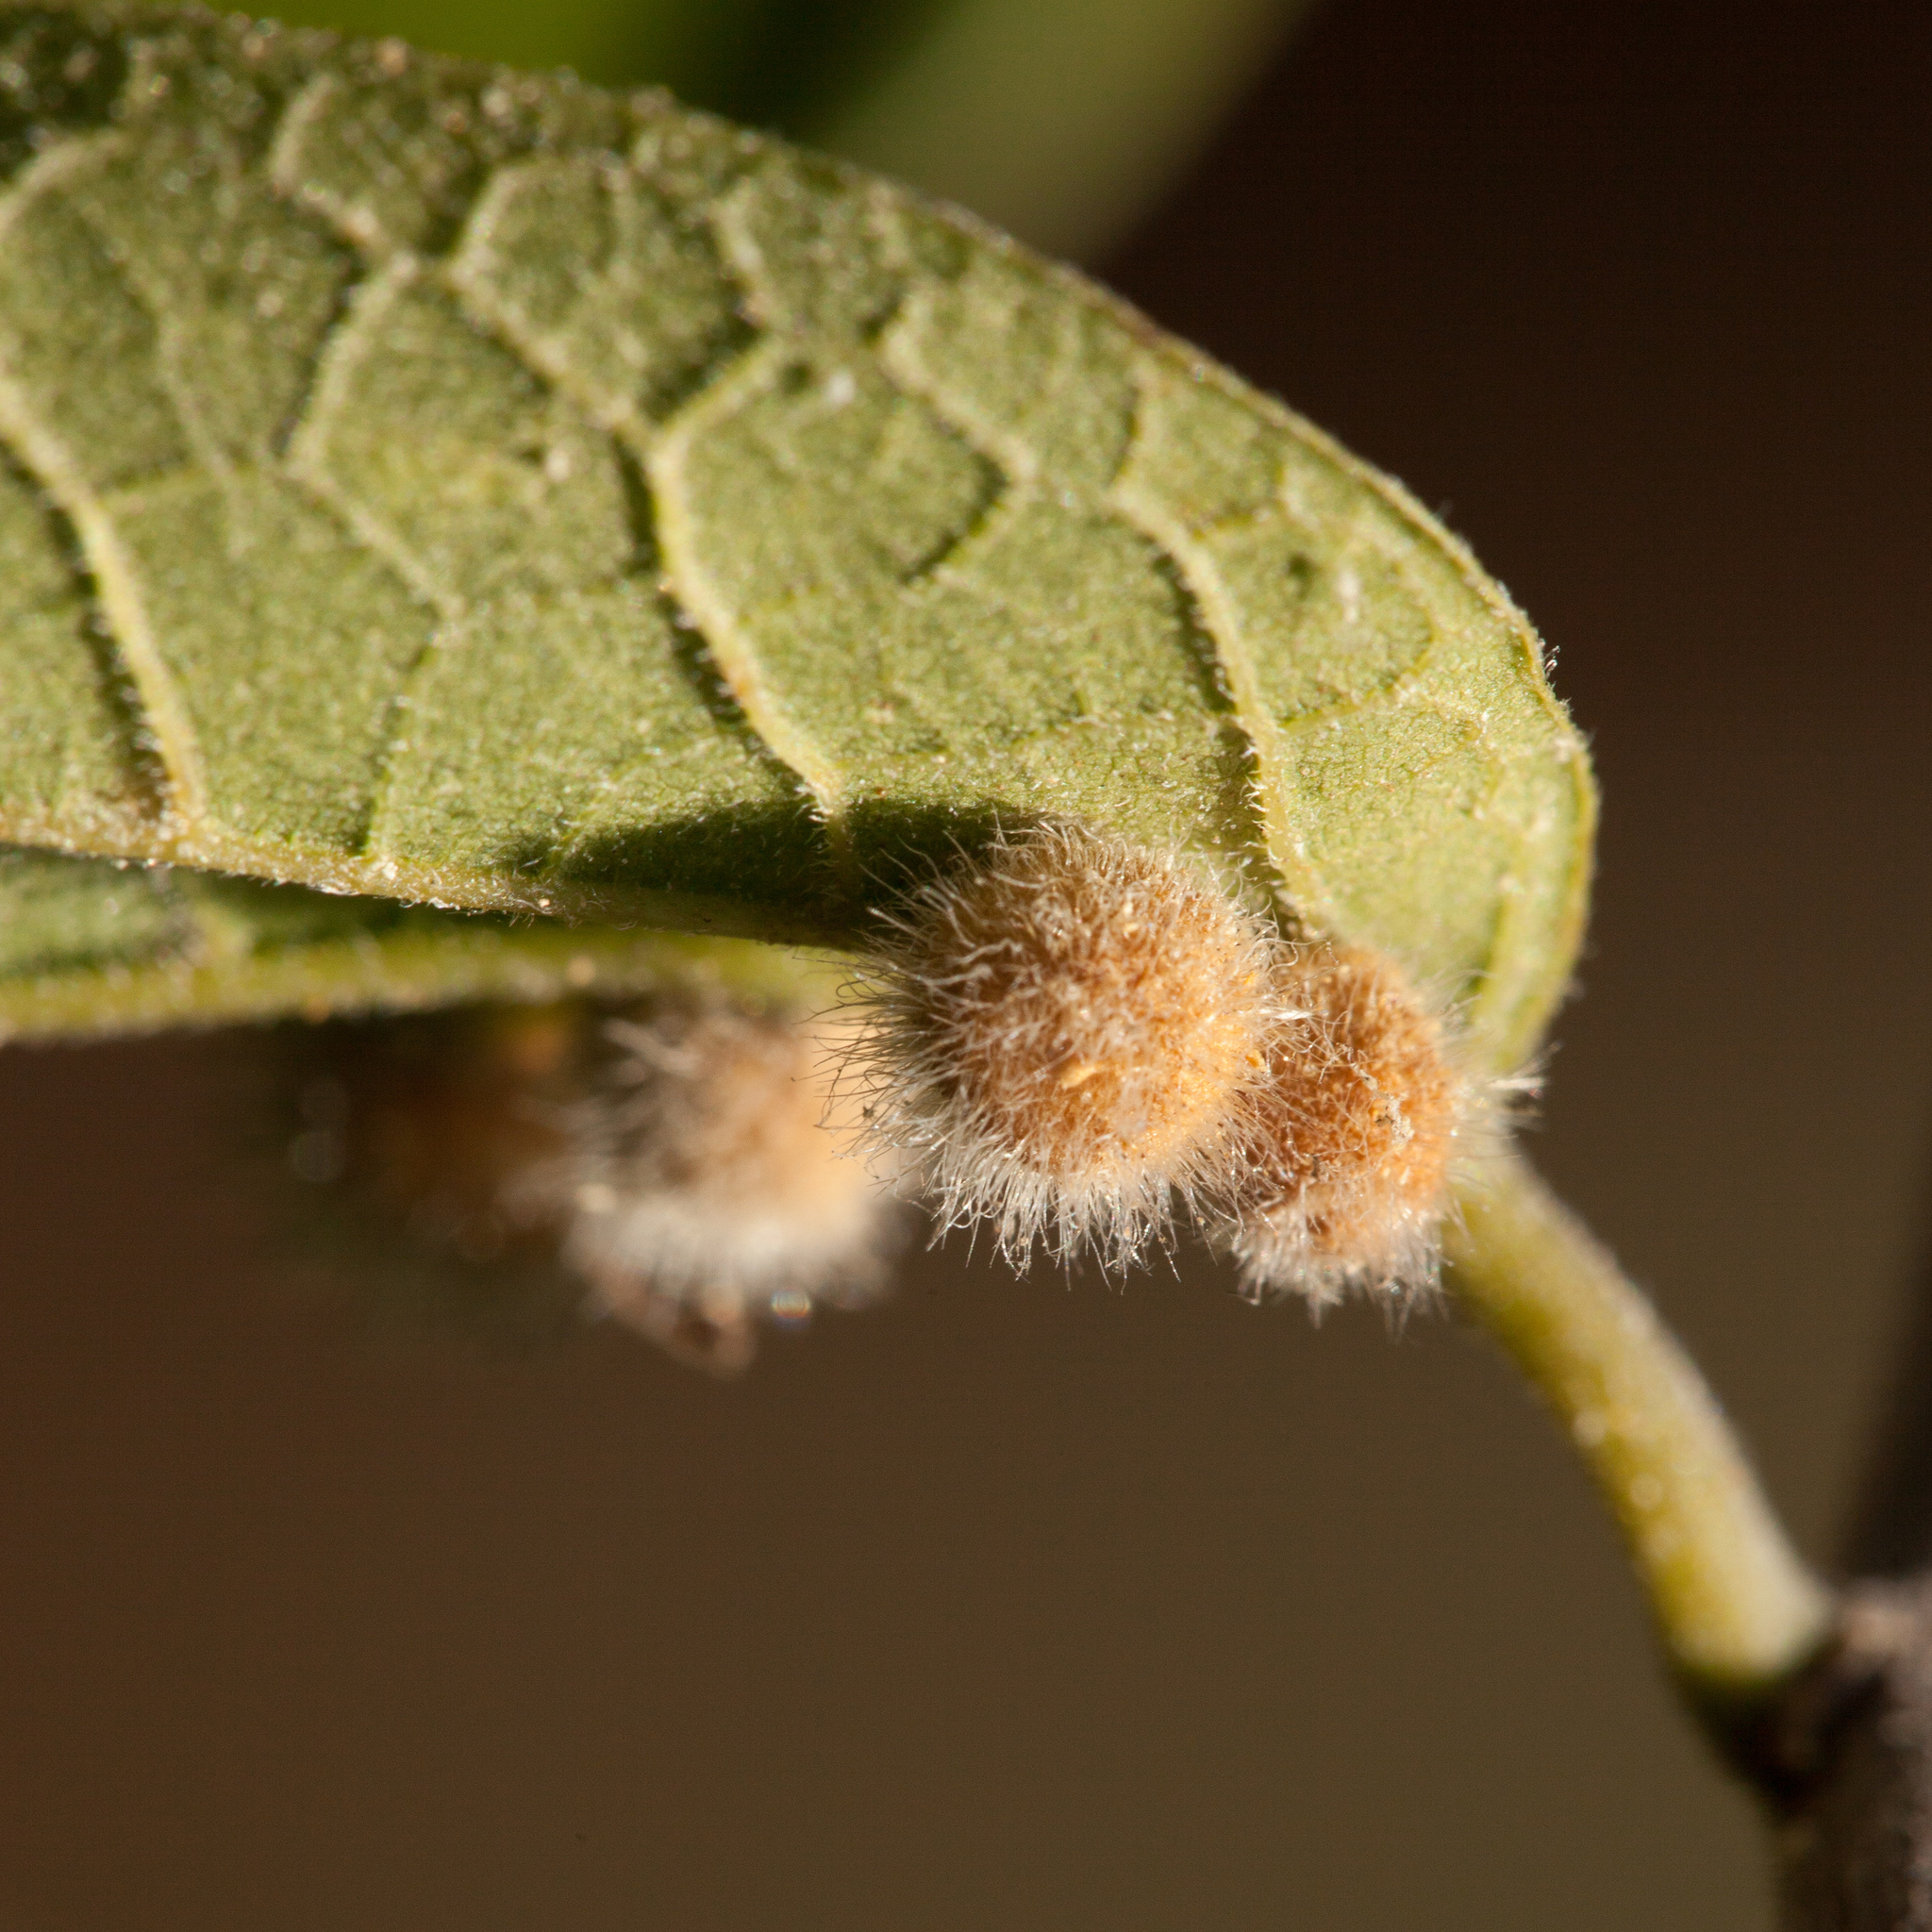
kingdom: Animalia
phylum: Arthropoda
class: Insecta
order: Diptera
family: Cecidomyiidae
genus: Celticecis
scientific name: Celticecis pubescens
